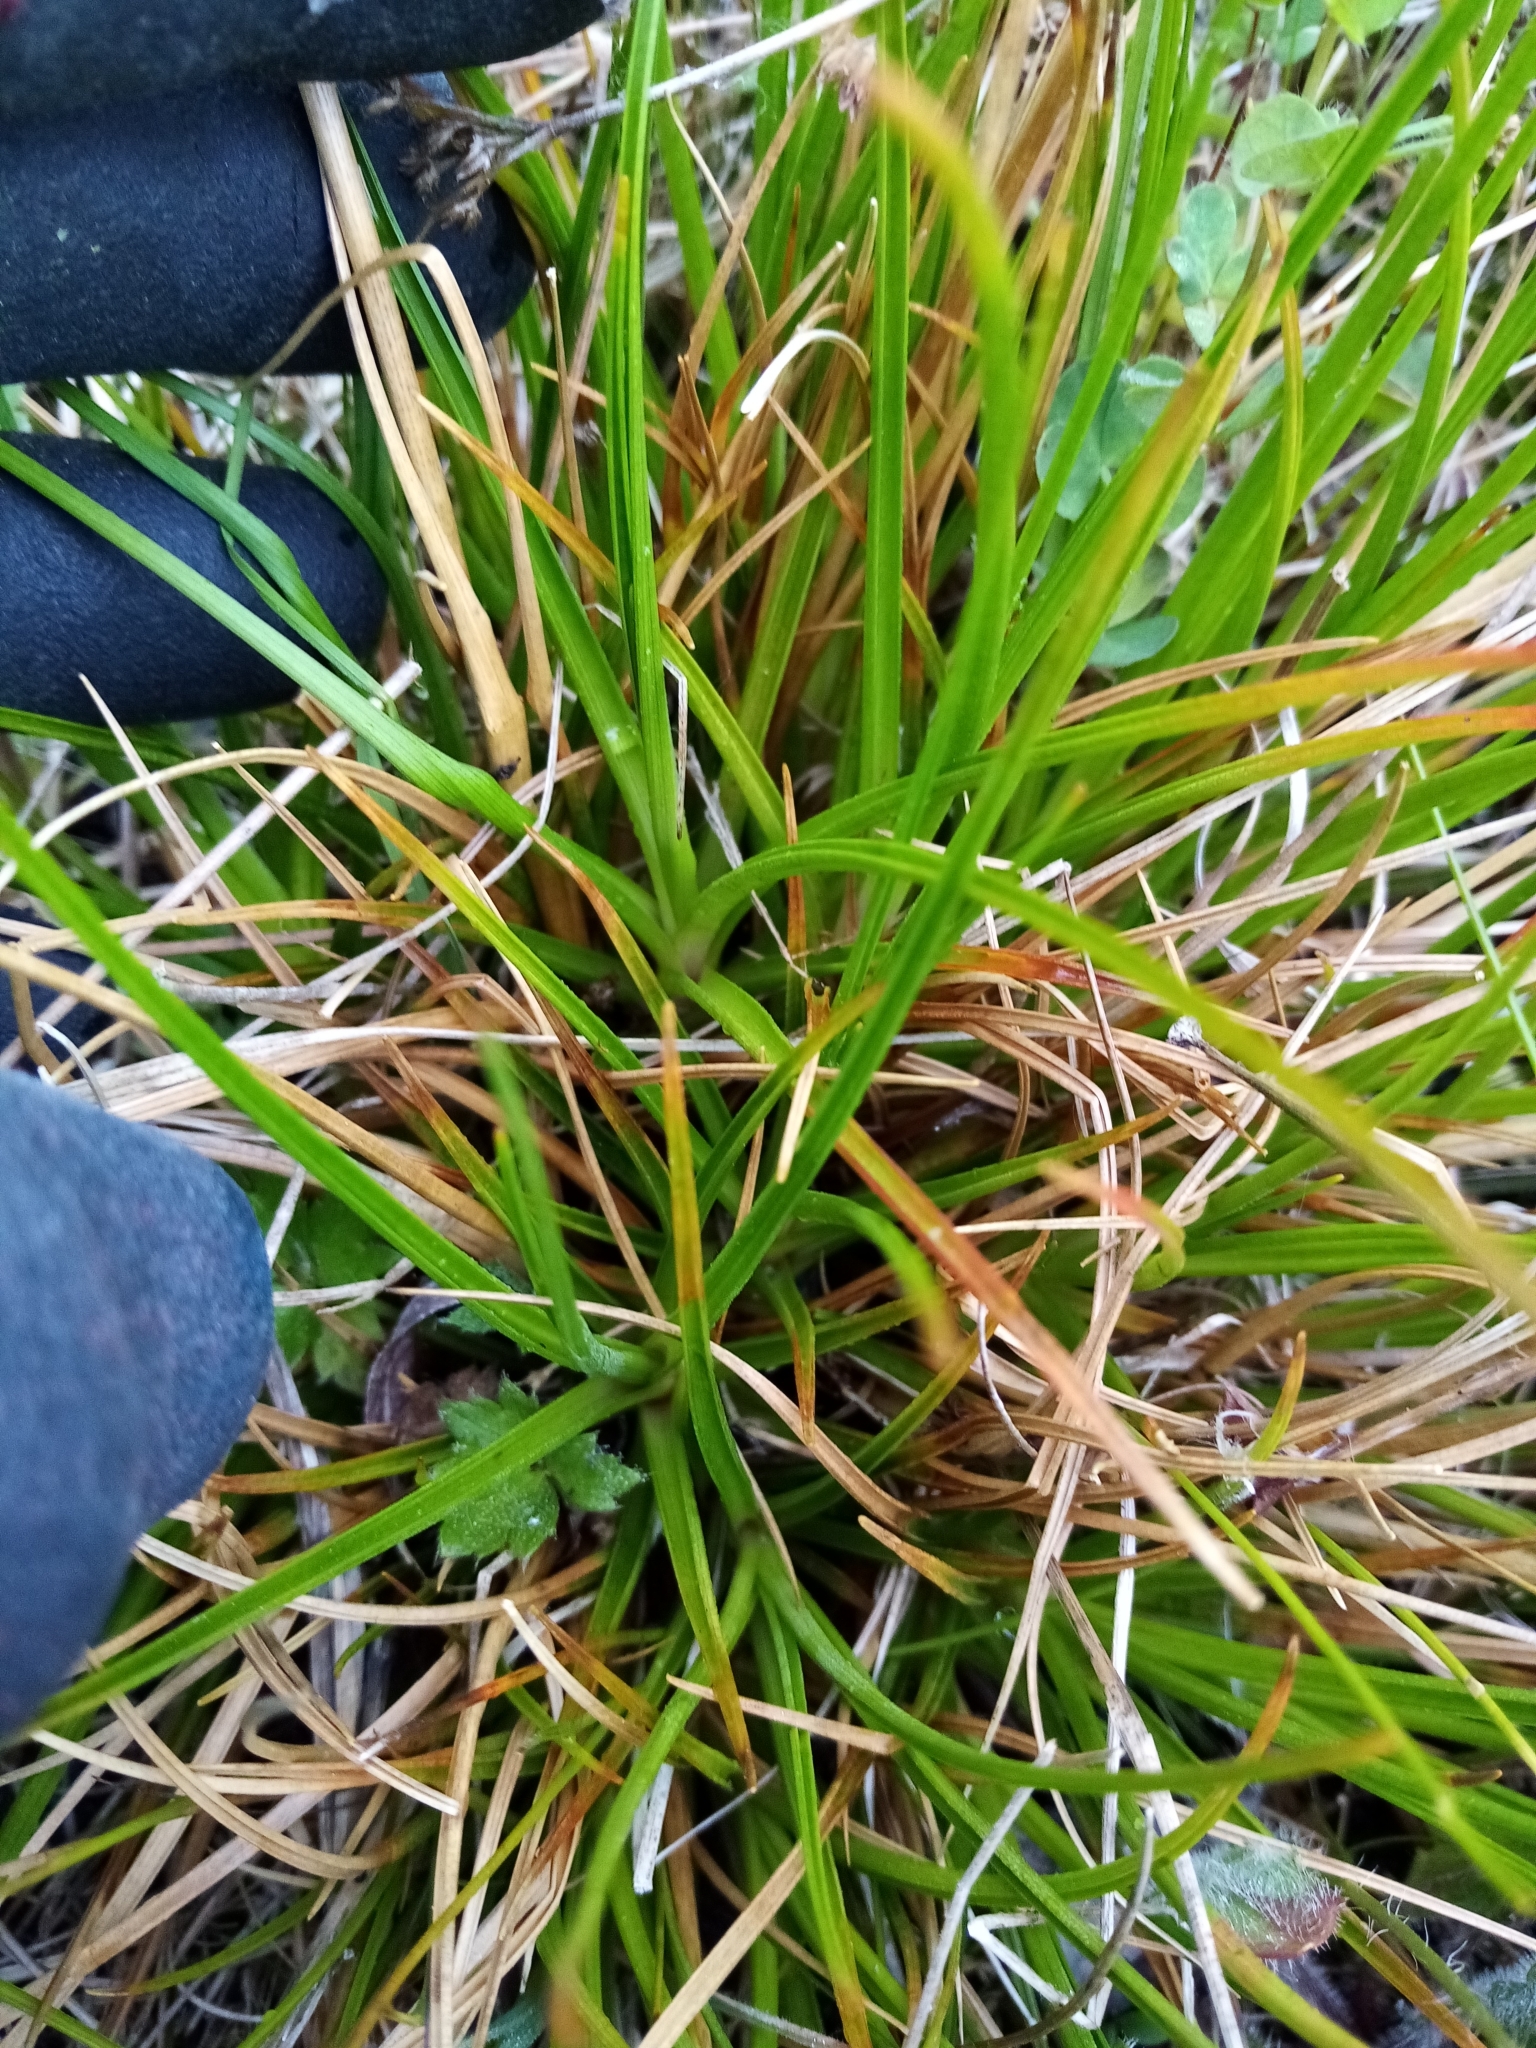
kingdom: Plantae
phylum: Tracheophyta
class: Liliopsida
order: Poales
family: Juncaceae
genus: Juncus
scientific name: Juncus caespiticius
